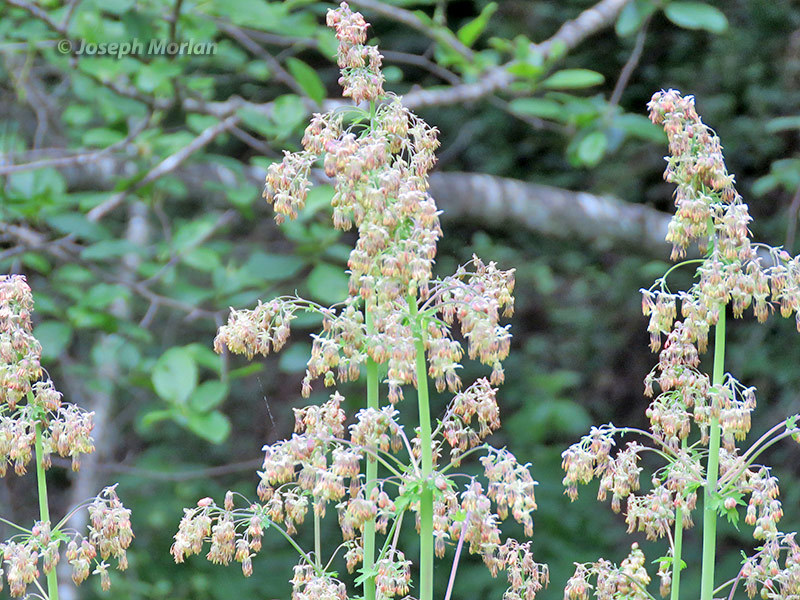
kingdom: Plantae
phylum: Tracheophyta
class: Magnoliopsida
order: Ranunculales
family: Ranunculaceae
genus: Thalictrum
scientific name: Thalictrum fendleri
